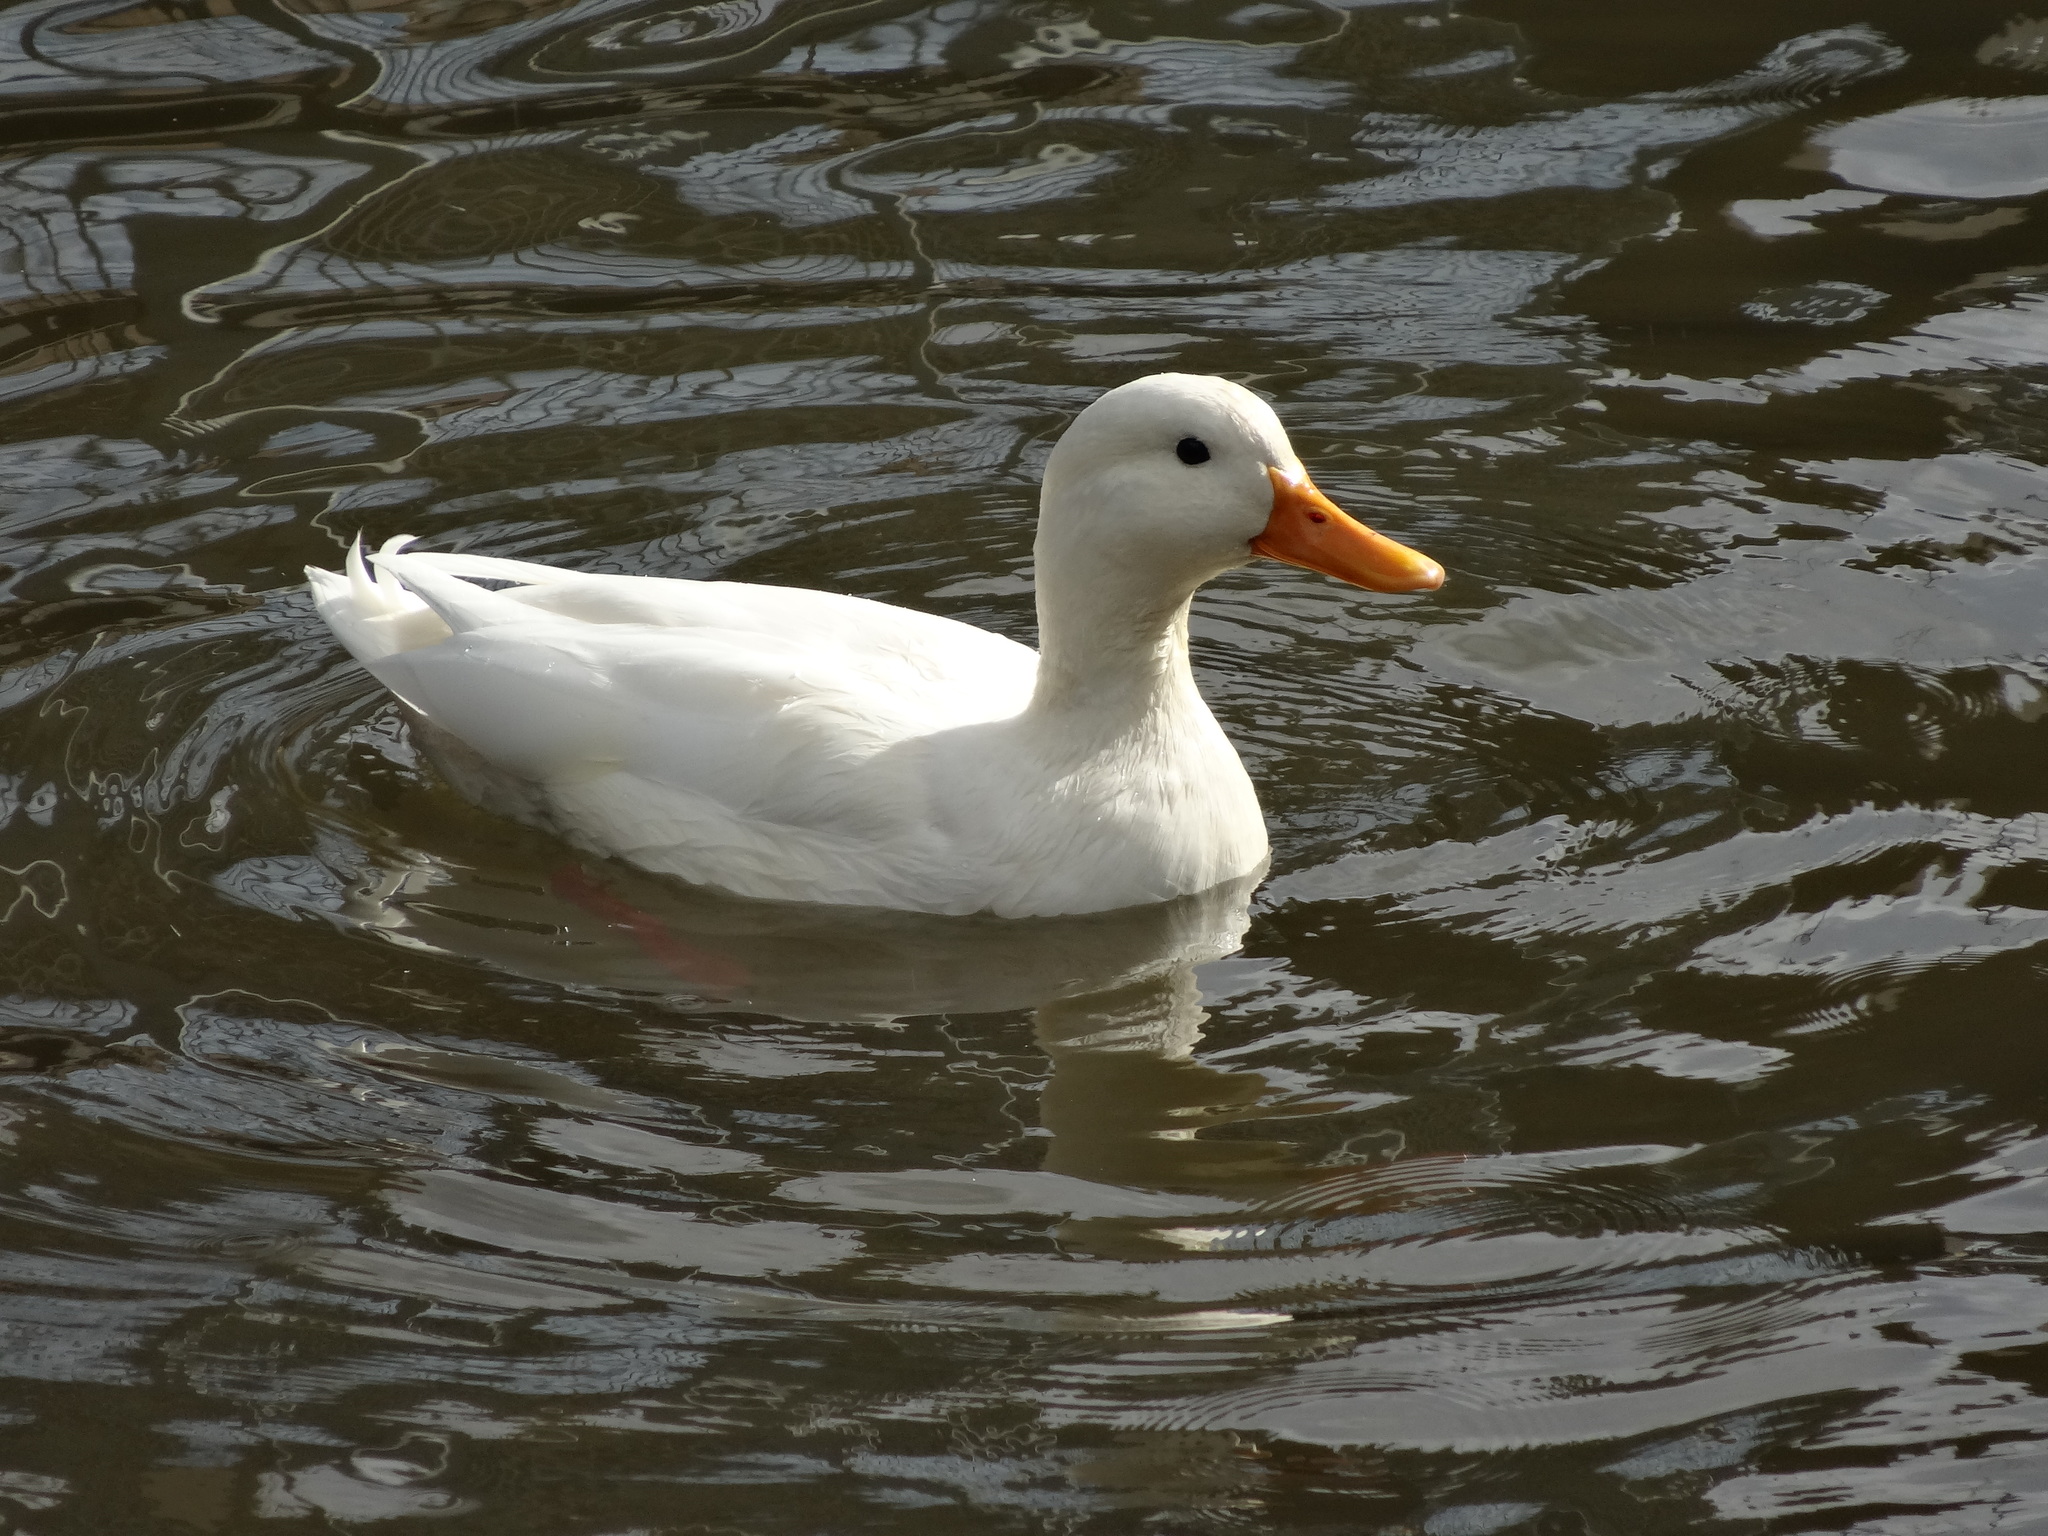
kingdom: Animalia
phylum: Chordata
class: Aves
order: Anseriformes
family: Anatidae
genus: Anas
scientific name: Anas platyrhynchos
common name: Mallard
